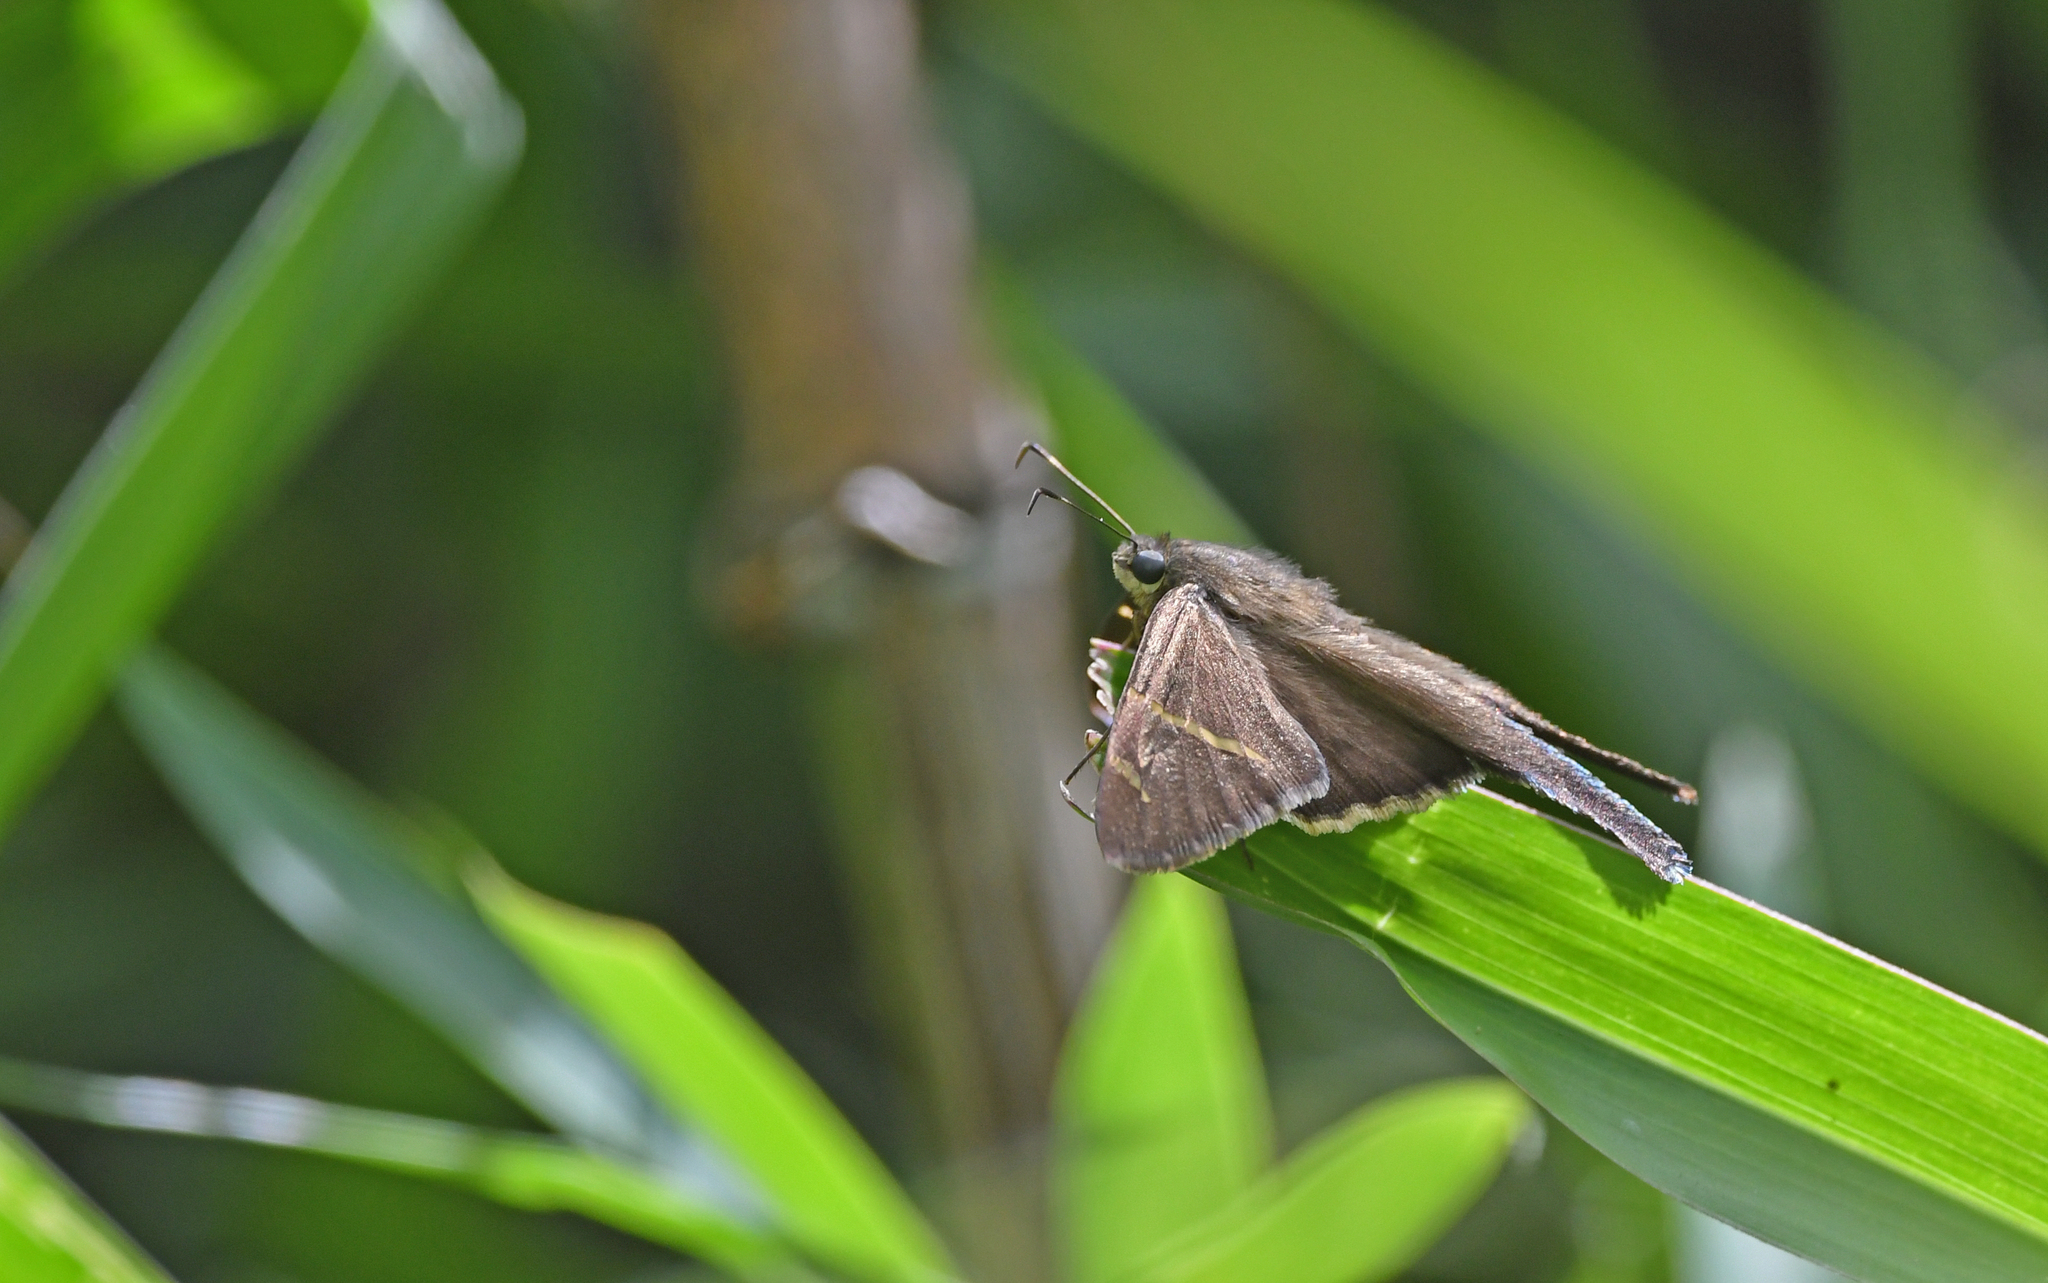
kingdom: Animalia
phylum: Arthropoda
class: Insecta
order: Lepidoptera
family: Hesperiidae
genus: Urbanus
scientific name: Urbanus tanna
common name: Tanna longtail
